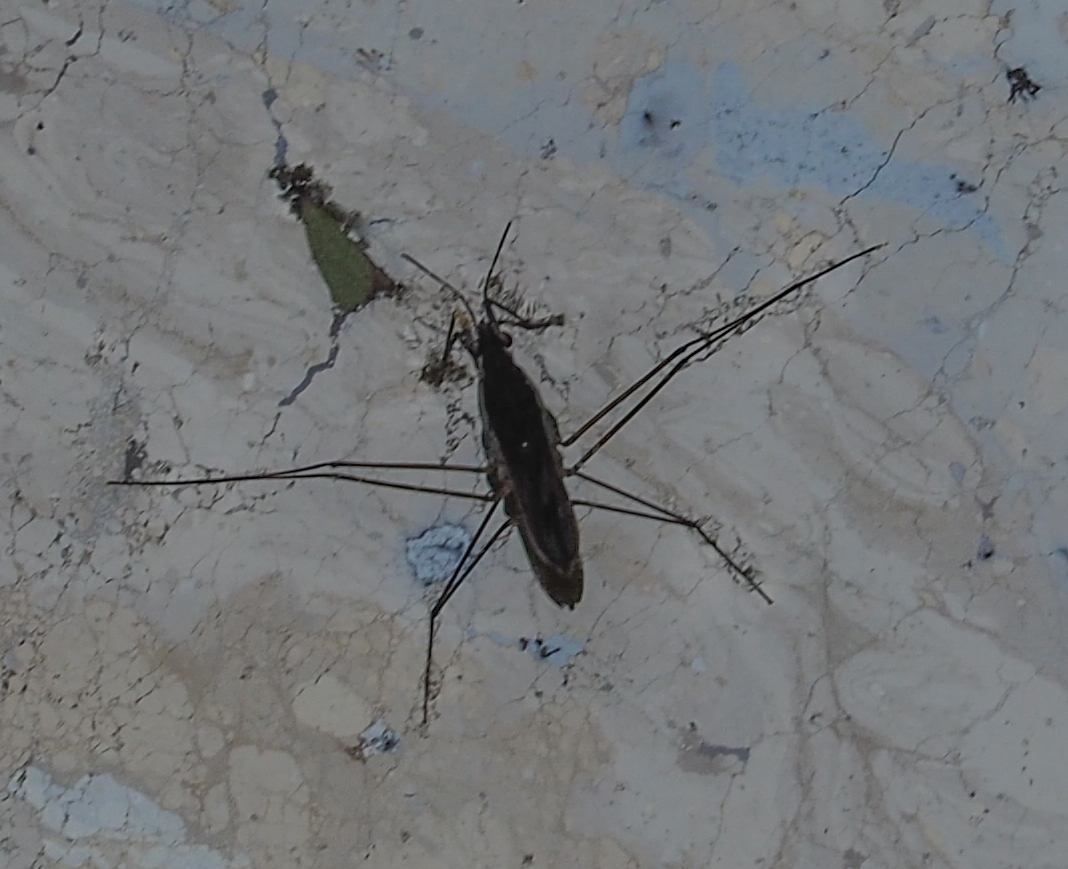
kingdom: Animalia
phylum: Arthropoda
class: Insecta
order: Hemiptera
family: Gerridae
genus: Gerris
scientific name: Gerris
